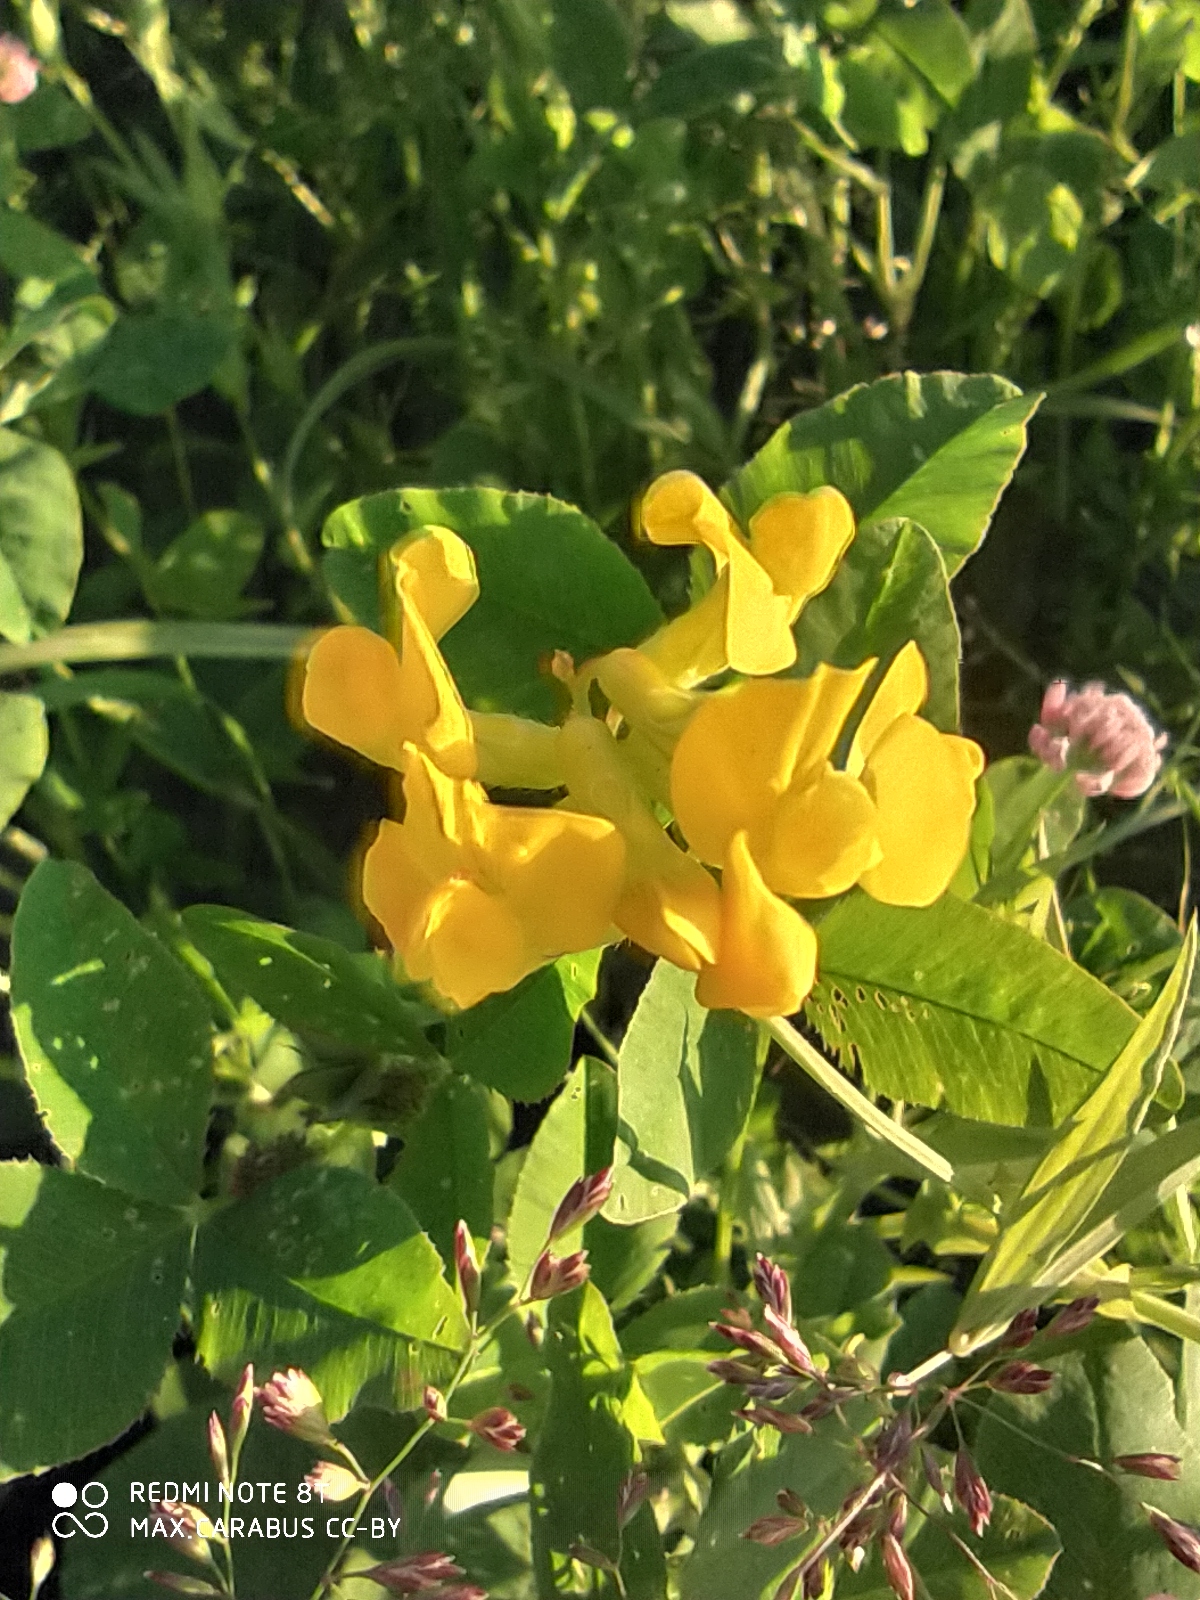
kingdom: Plantae
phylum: Tracheophyta
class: Magnoliopsida
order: Fabales
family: Fabaceae
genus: Lathyrus
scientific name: Lathyrus pratensis
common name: Meadow vetchling
